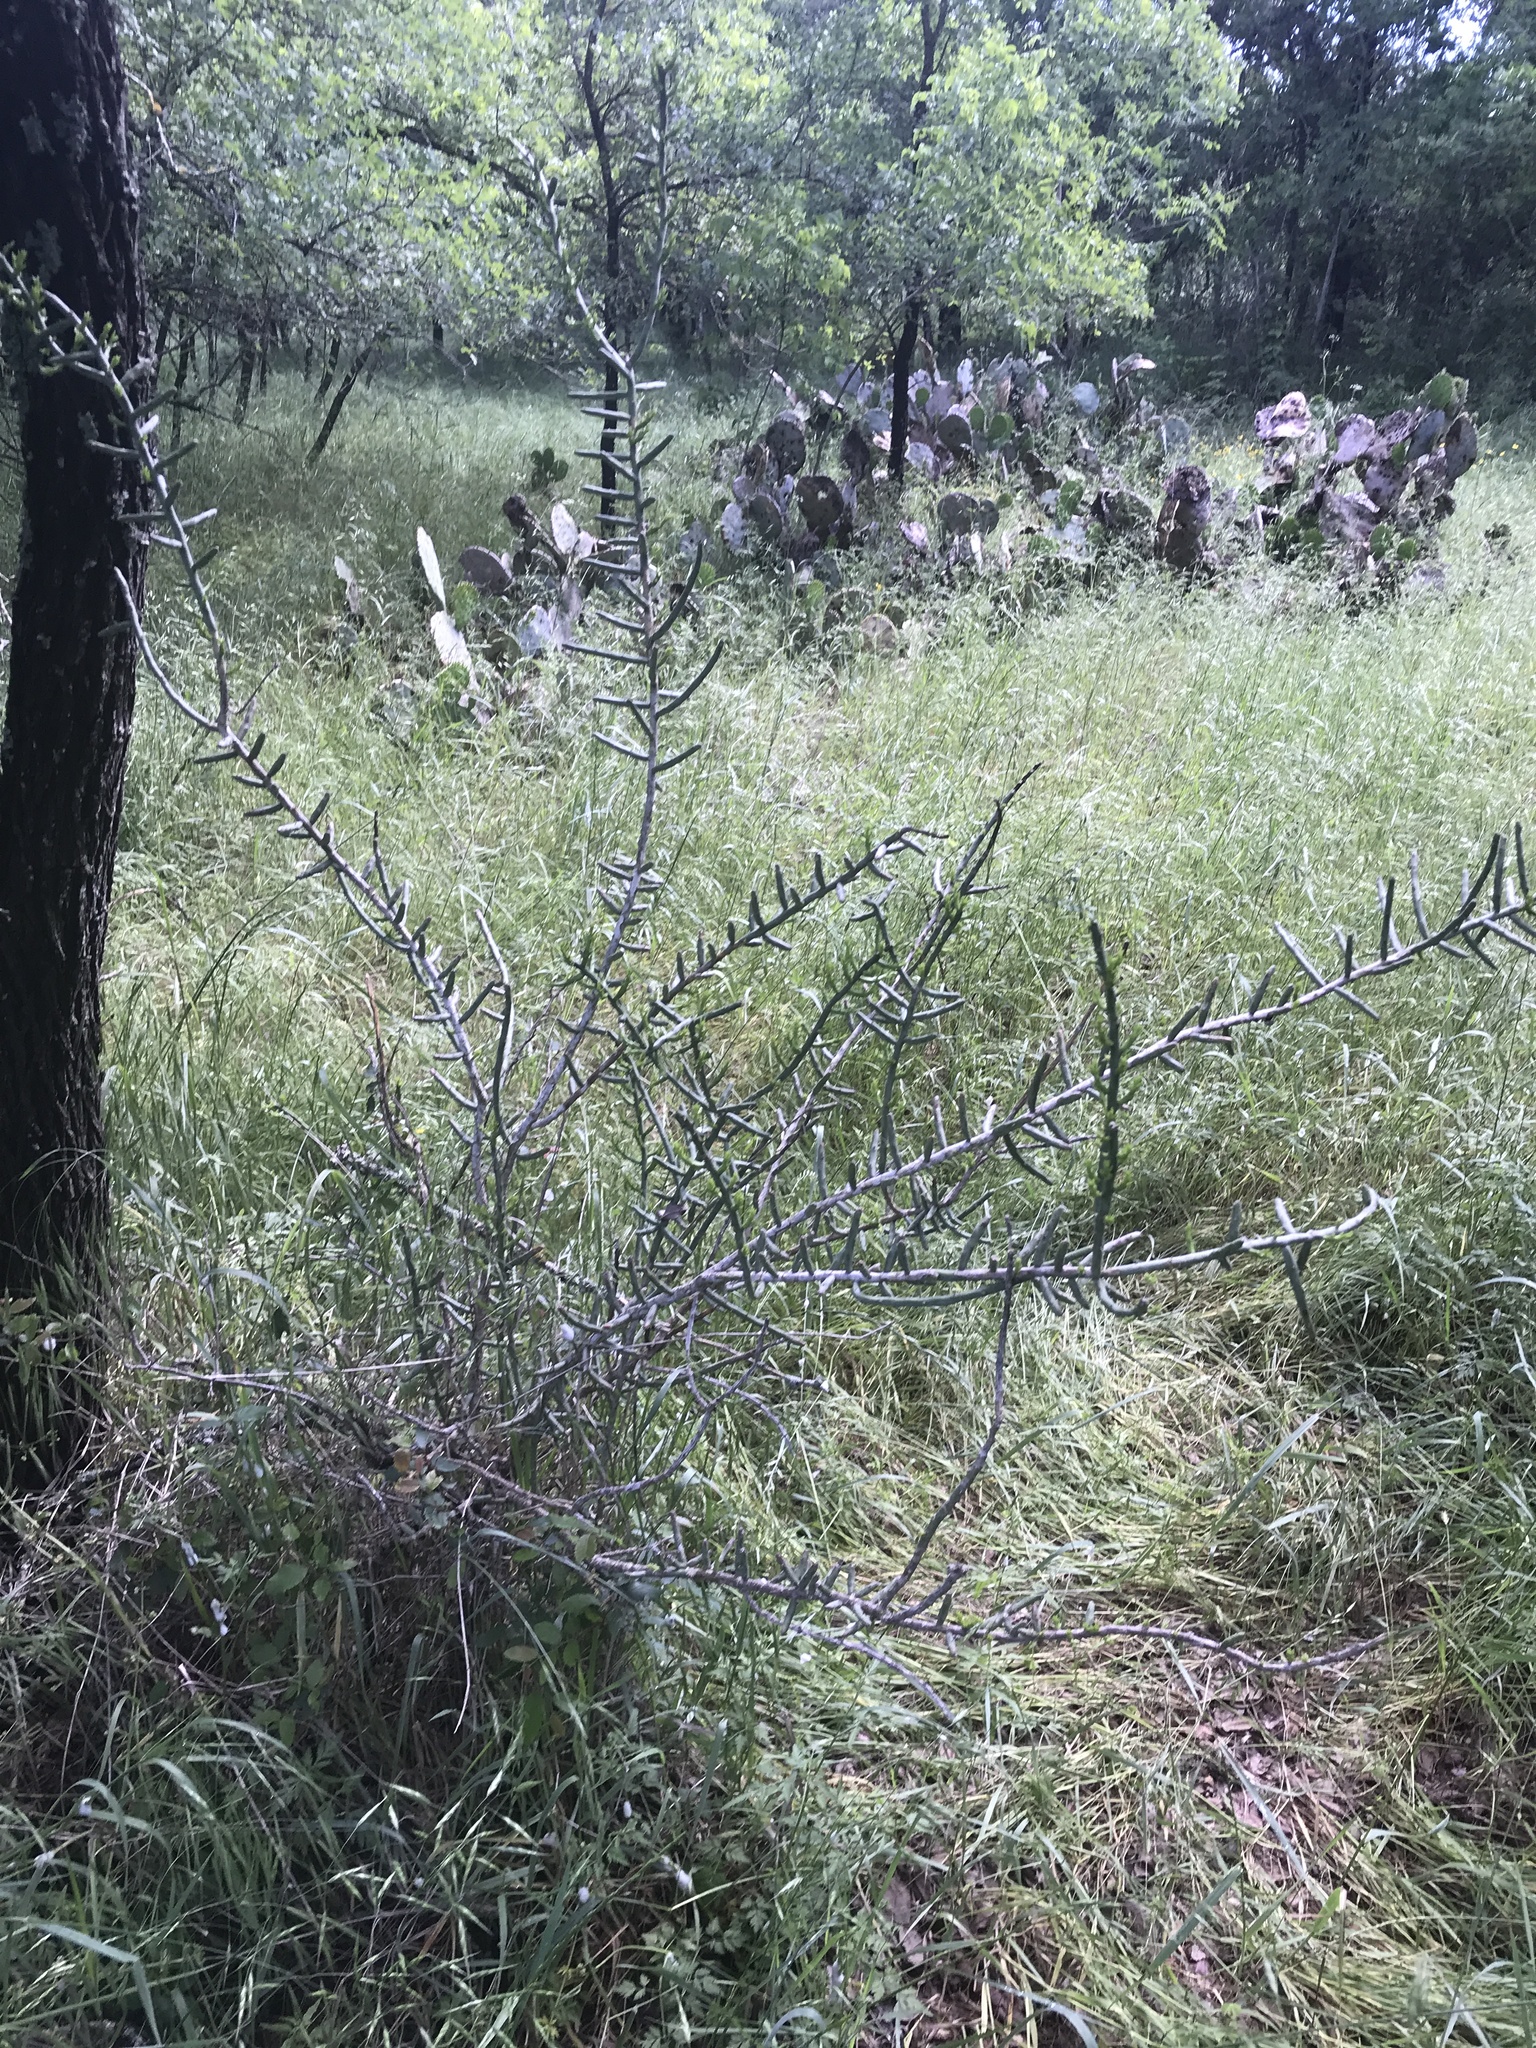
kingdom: Plantae
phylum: Tracheophyta
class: Magnoliopsida
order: Caryophyllales
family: Cactaceae
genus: Cylindropuntia
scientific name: Cylindropuntia leptocaulis
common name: Christmas cactus
